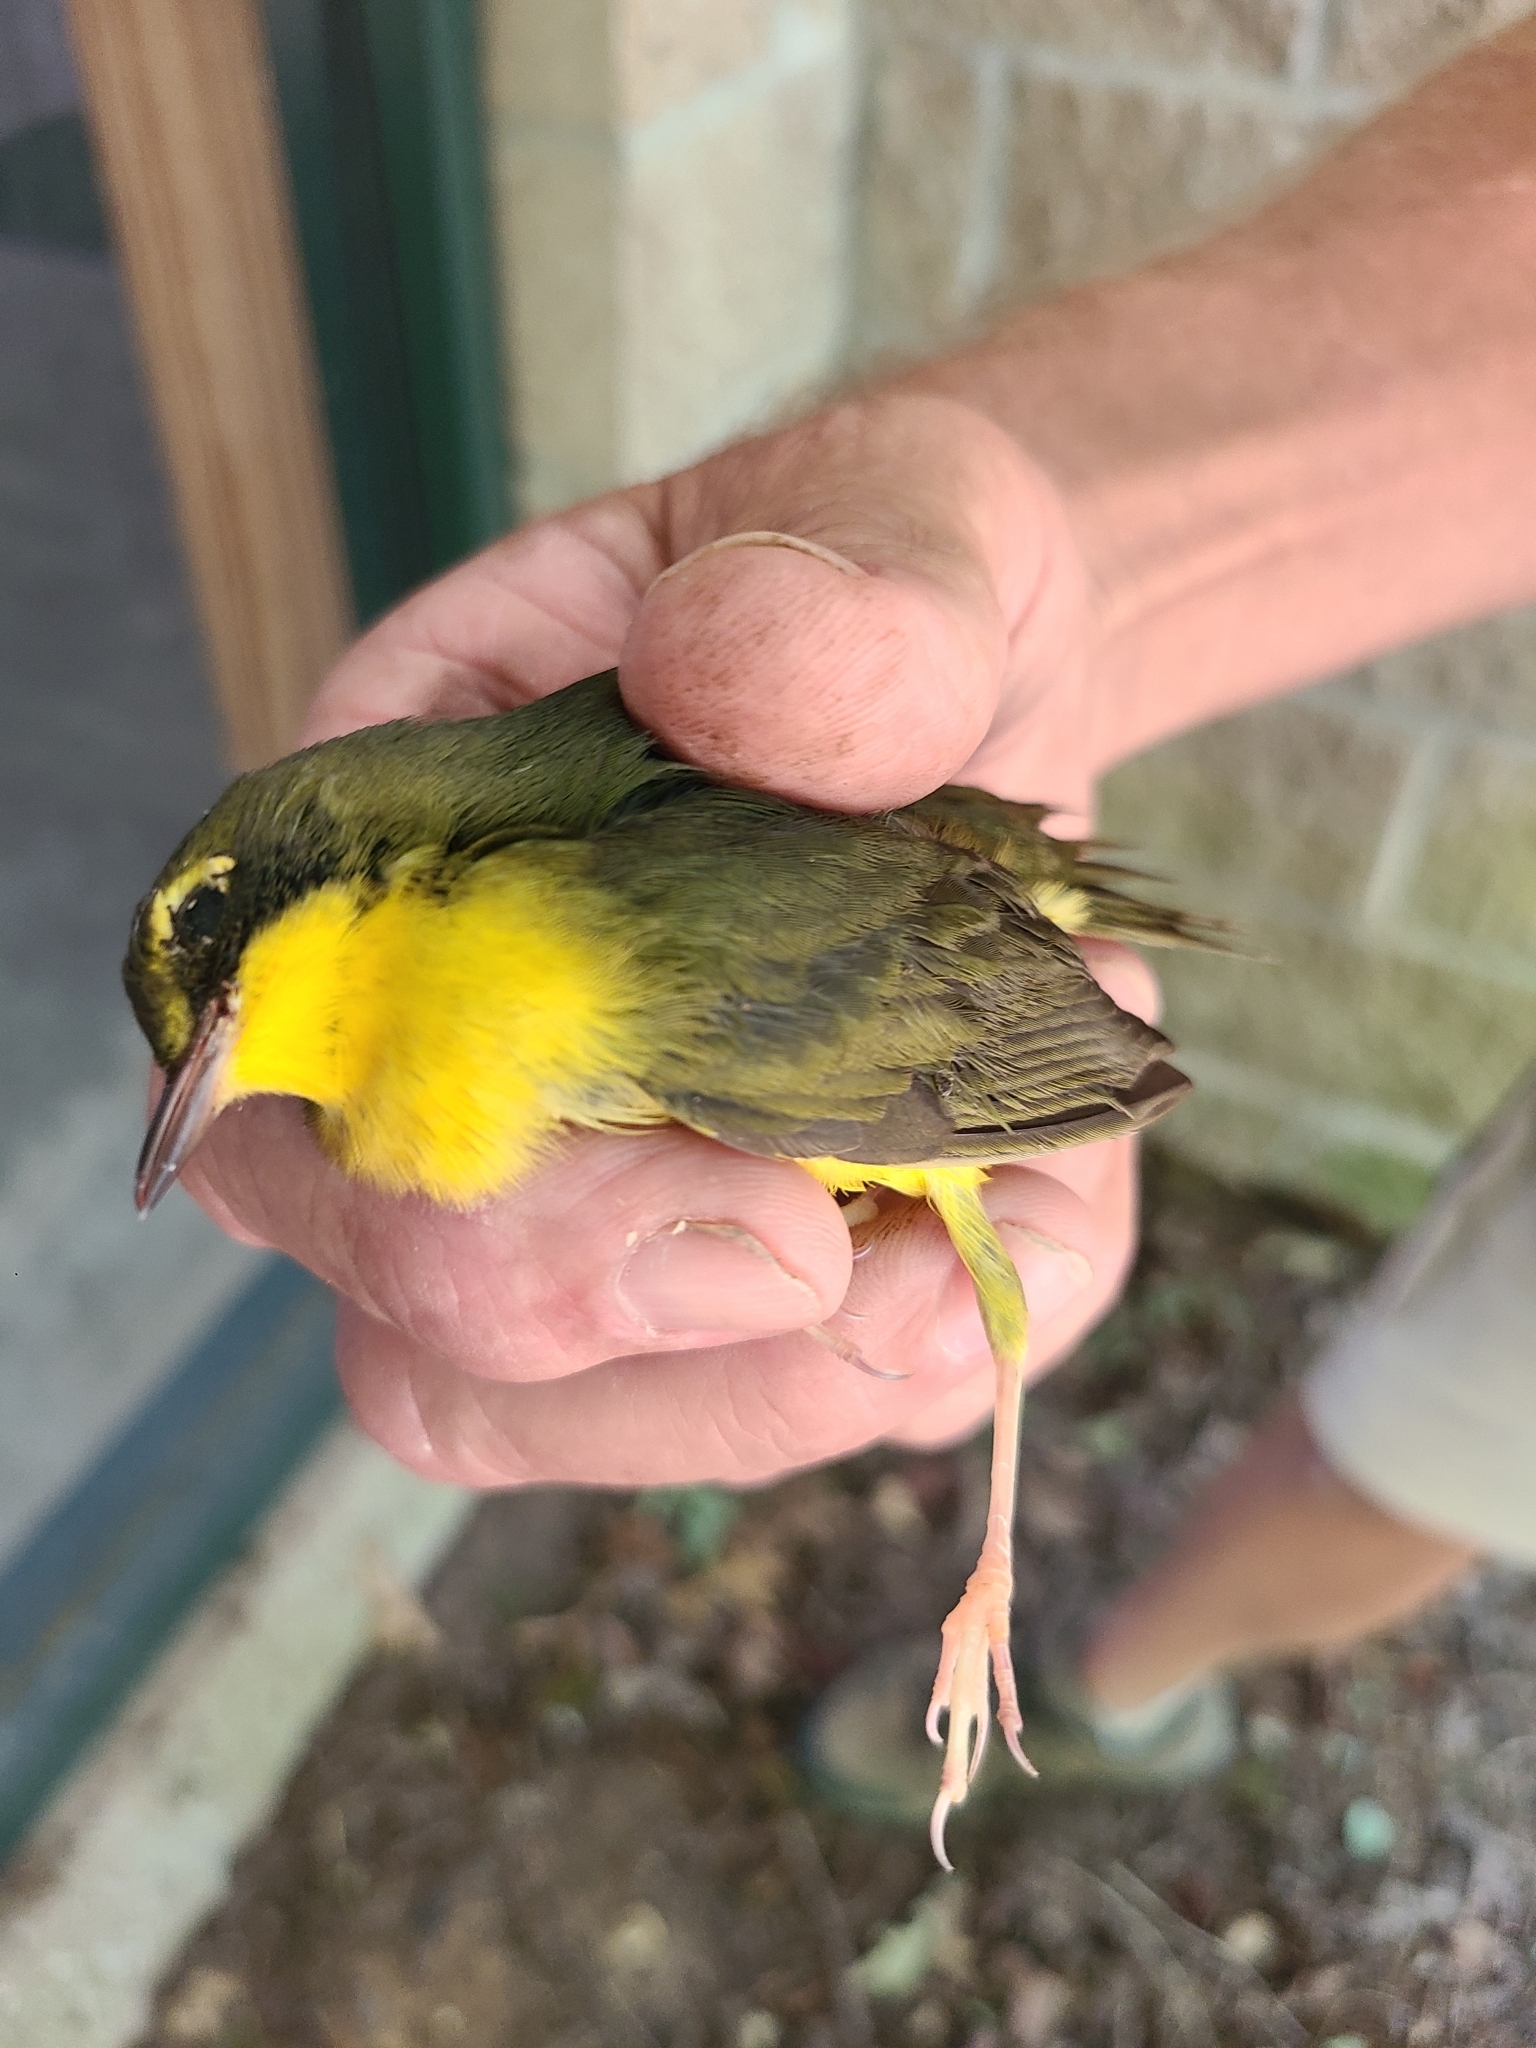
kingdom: Animalia
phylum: Chordata
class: Aves
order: Passeriformes
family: Parulidae
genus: Geothlypis
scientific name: Geothlypis formosa
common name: Kentucky warbler
